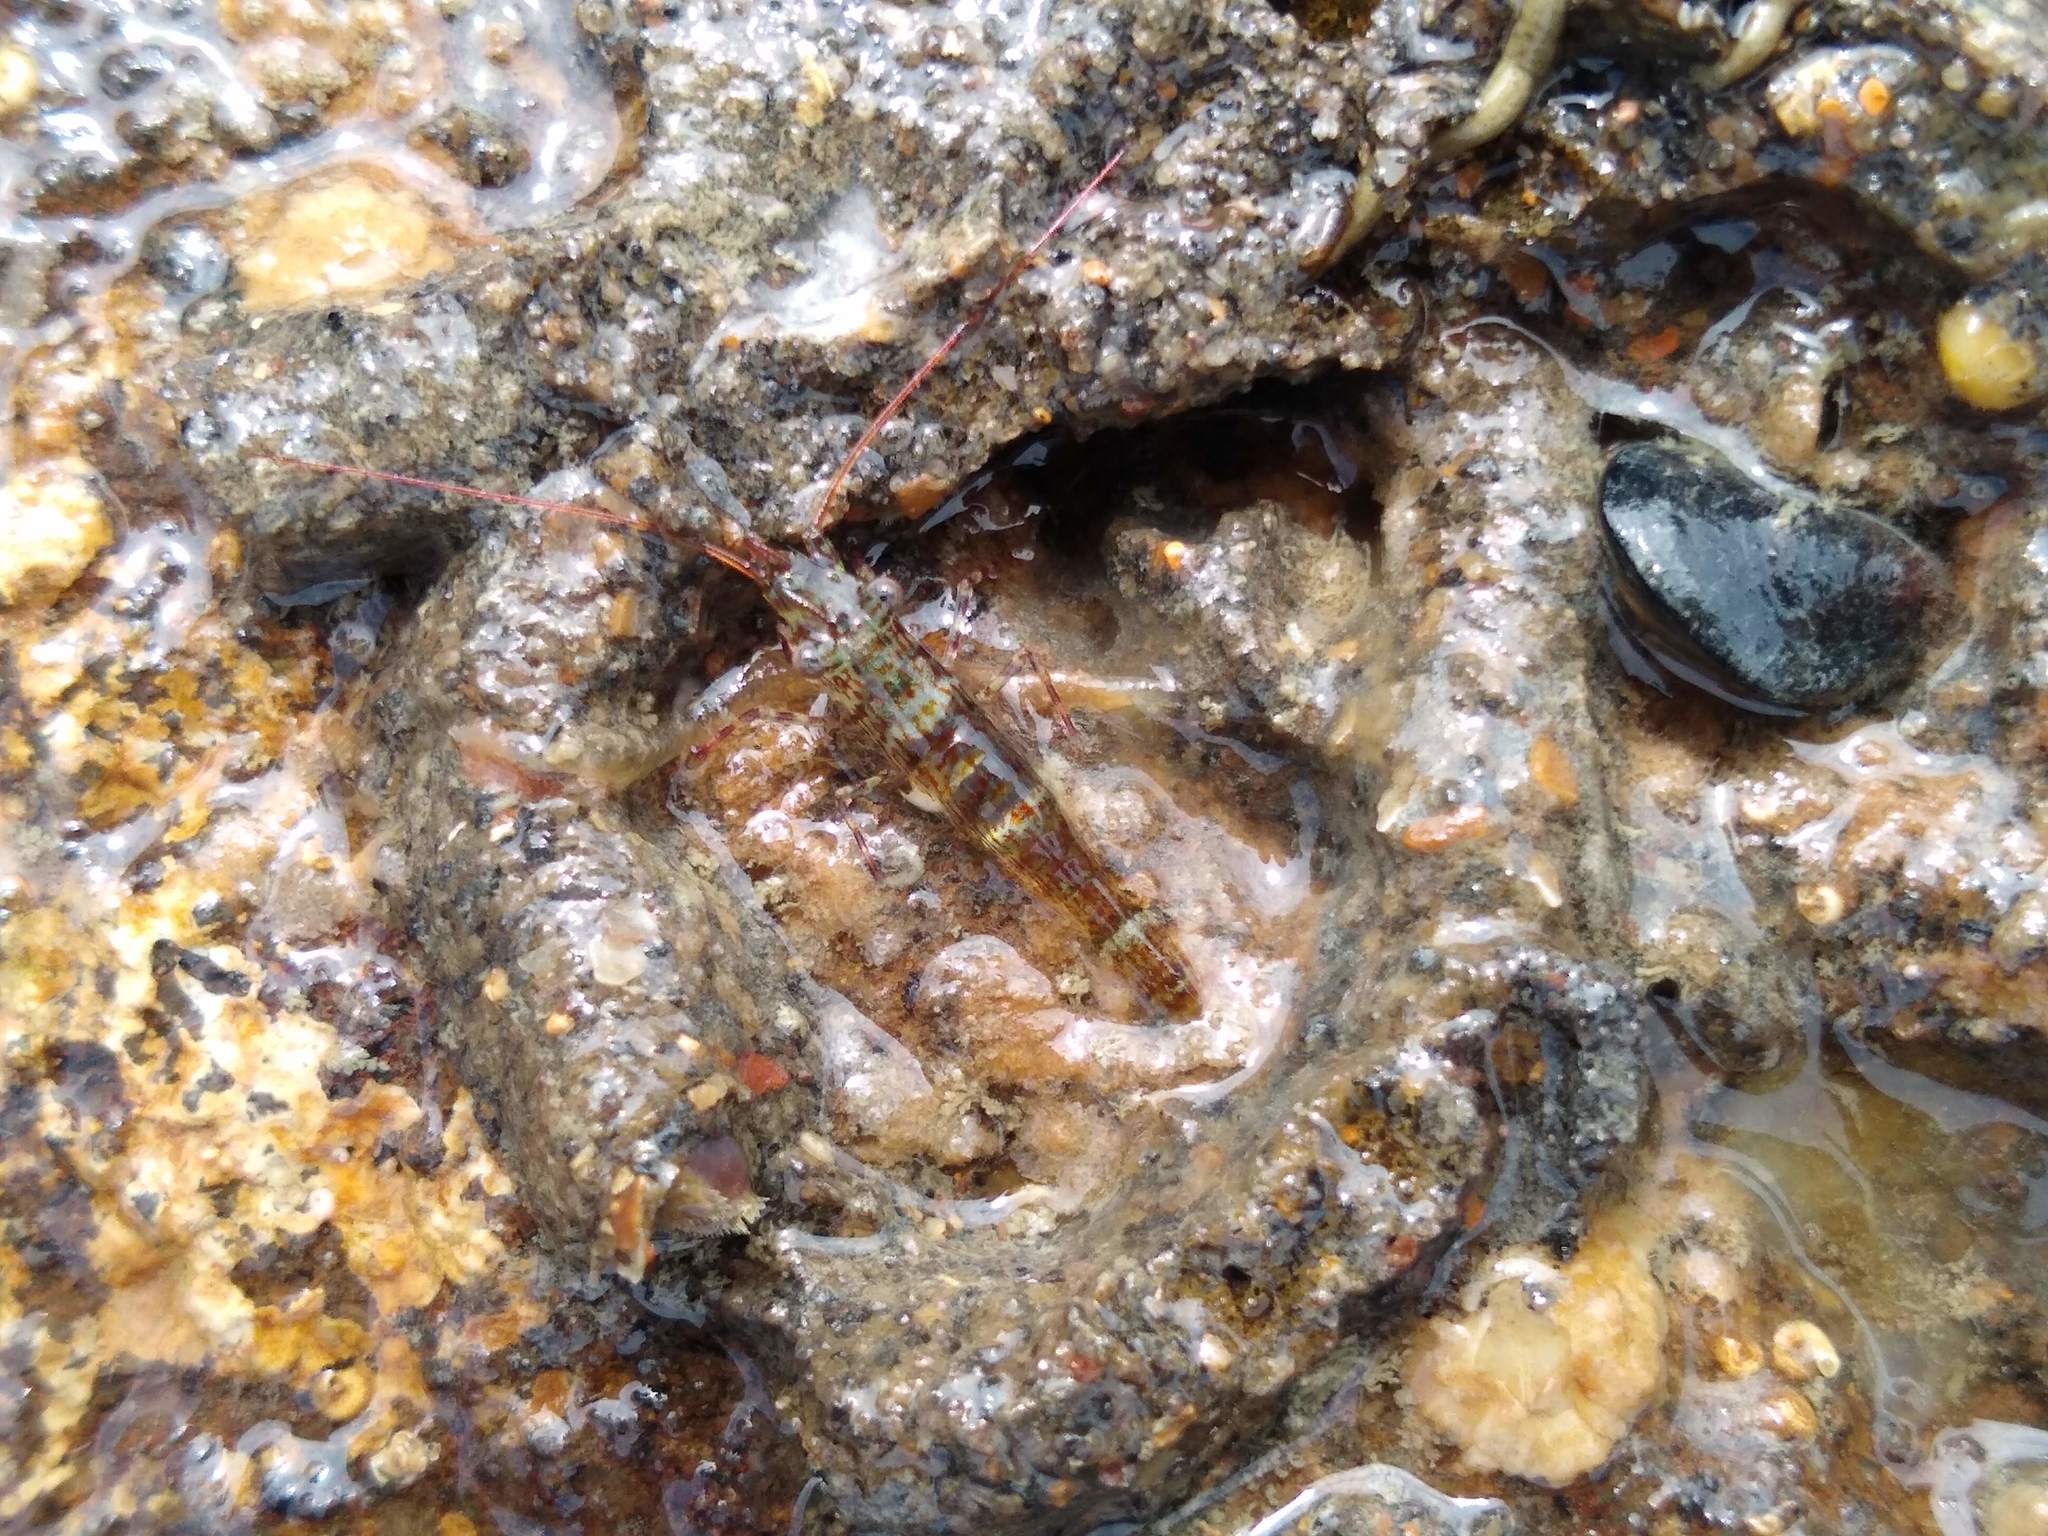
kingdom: Animalia
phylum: Arthropoda
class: Malacostraca
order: Decapoda
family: Hippolytidae
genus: Alope
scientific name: Alope spinifrons
